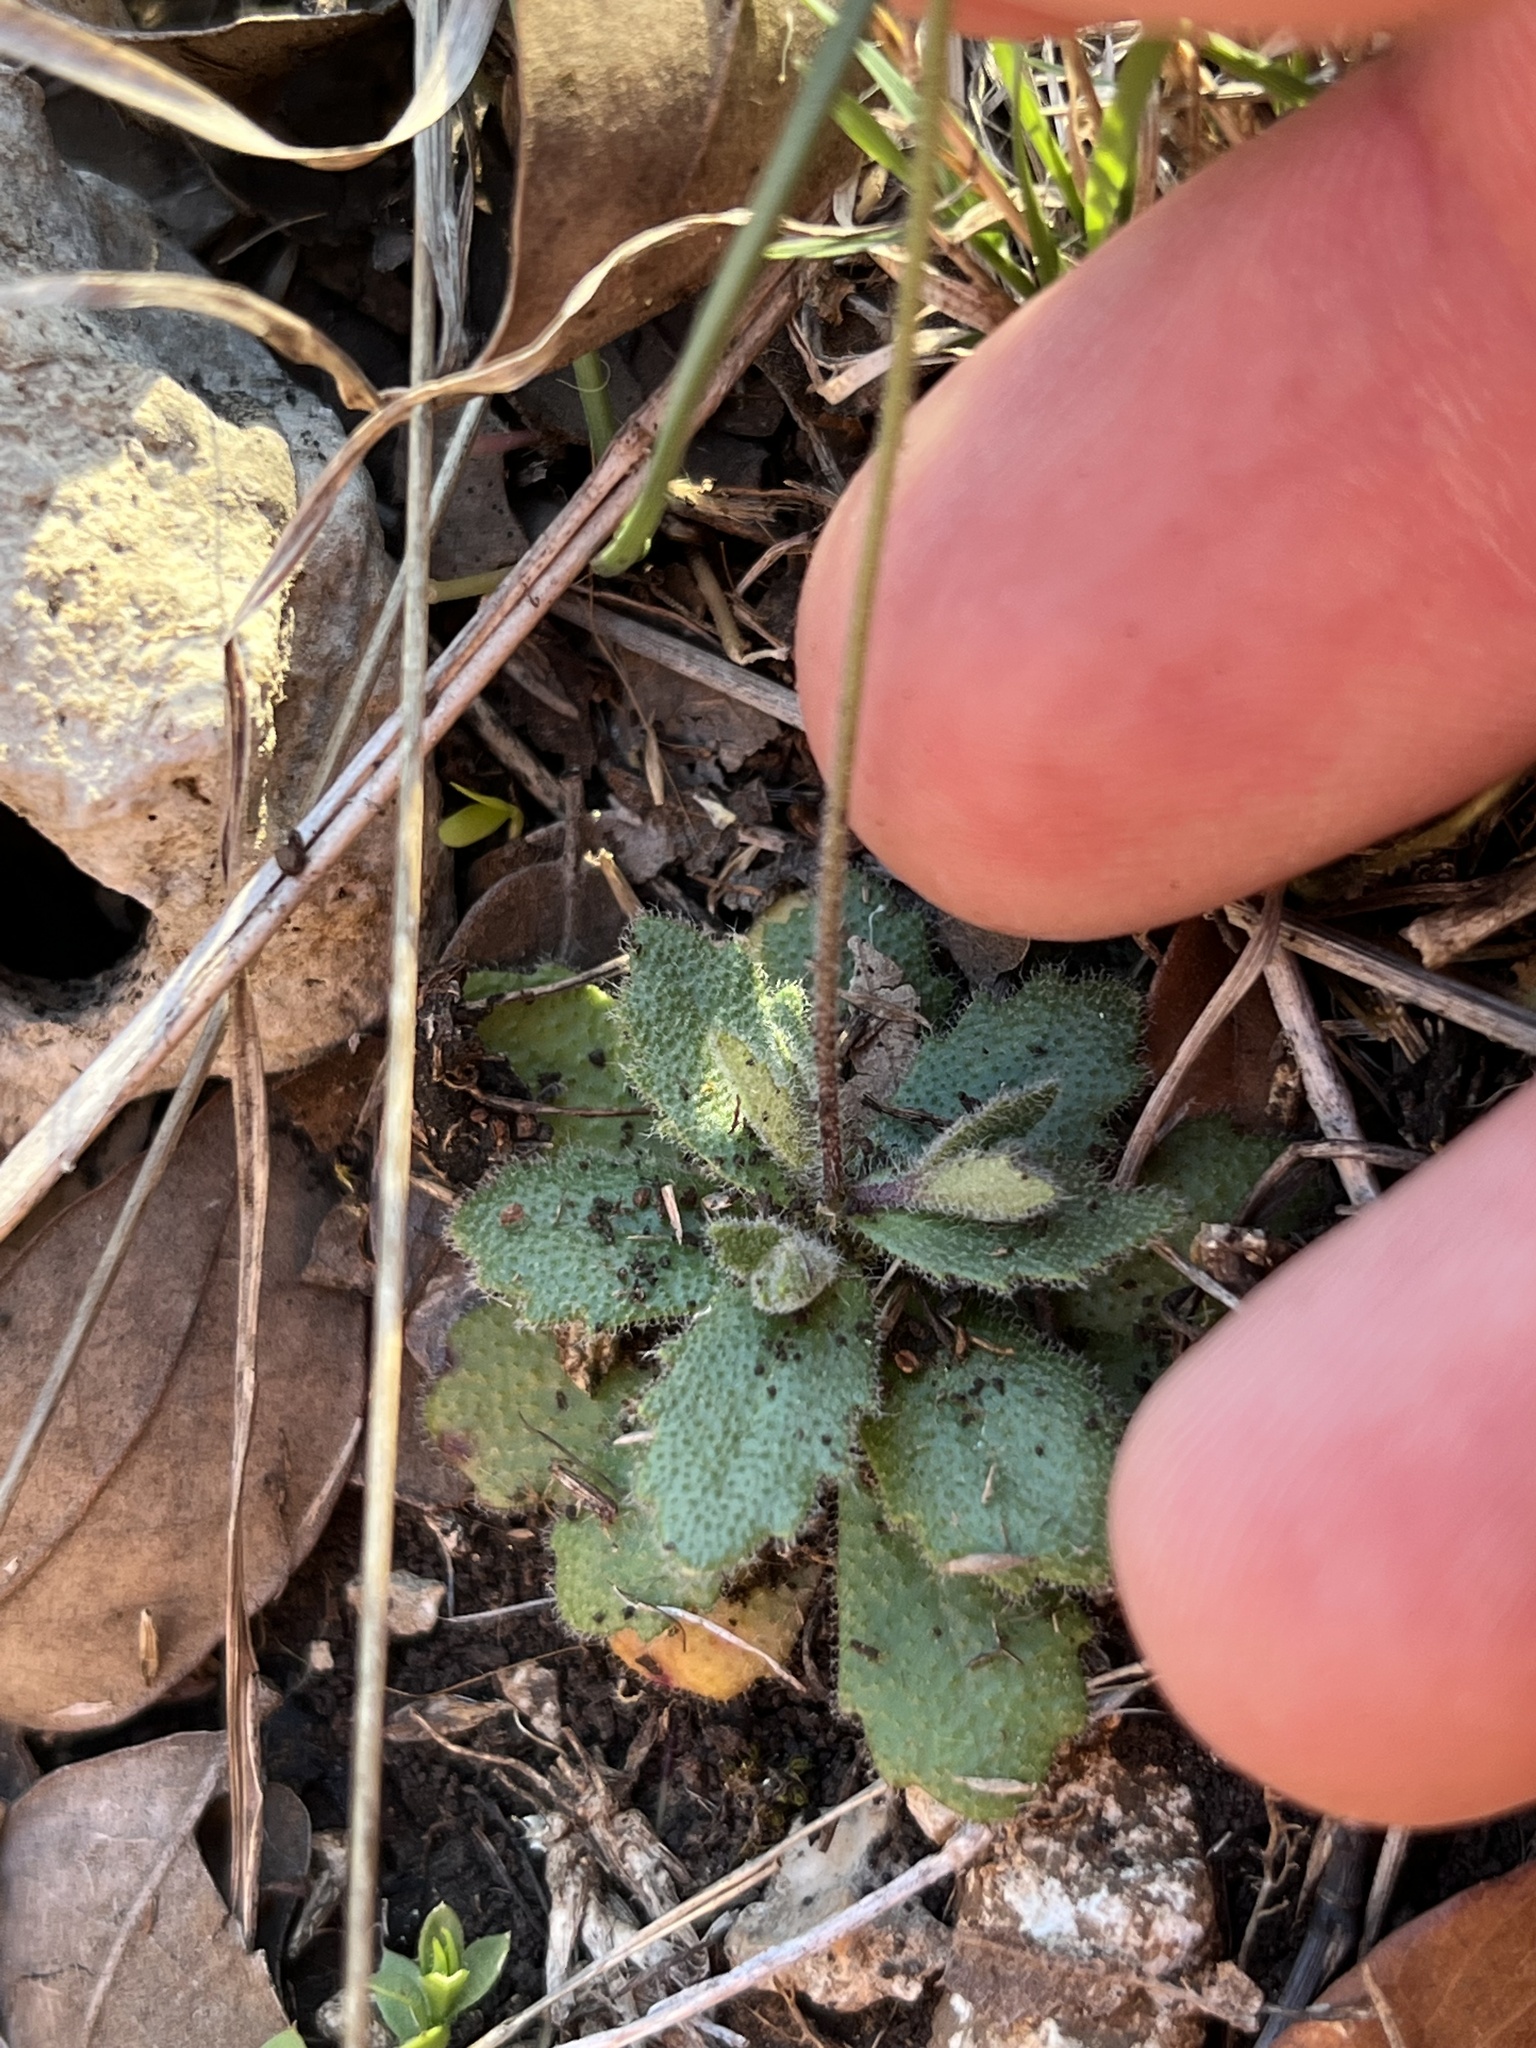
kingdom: Plantae
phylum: Tracheophyta
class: Magnoliopsida
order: Brassicales
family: Brassicaceae
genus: Tomostima
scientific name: Tomostima cuneifolia
